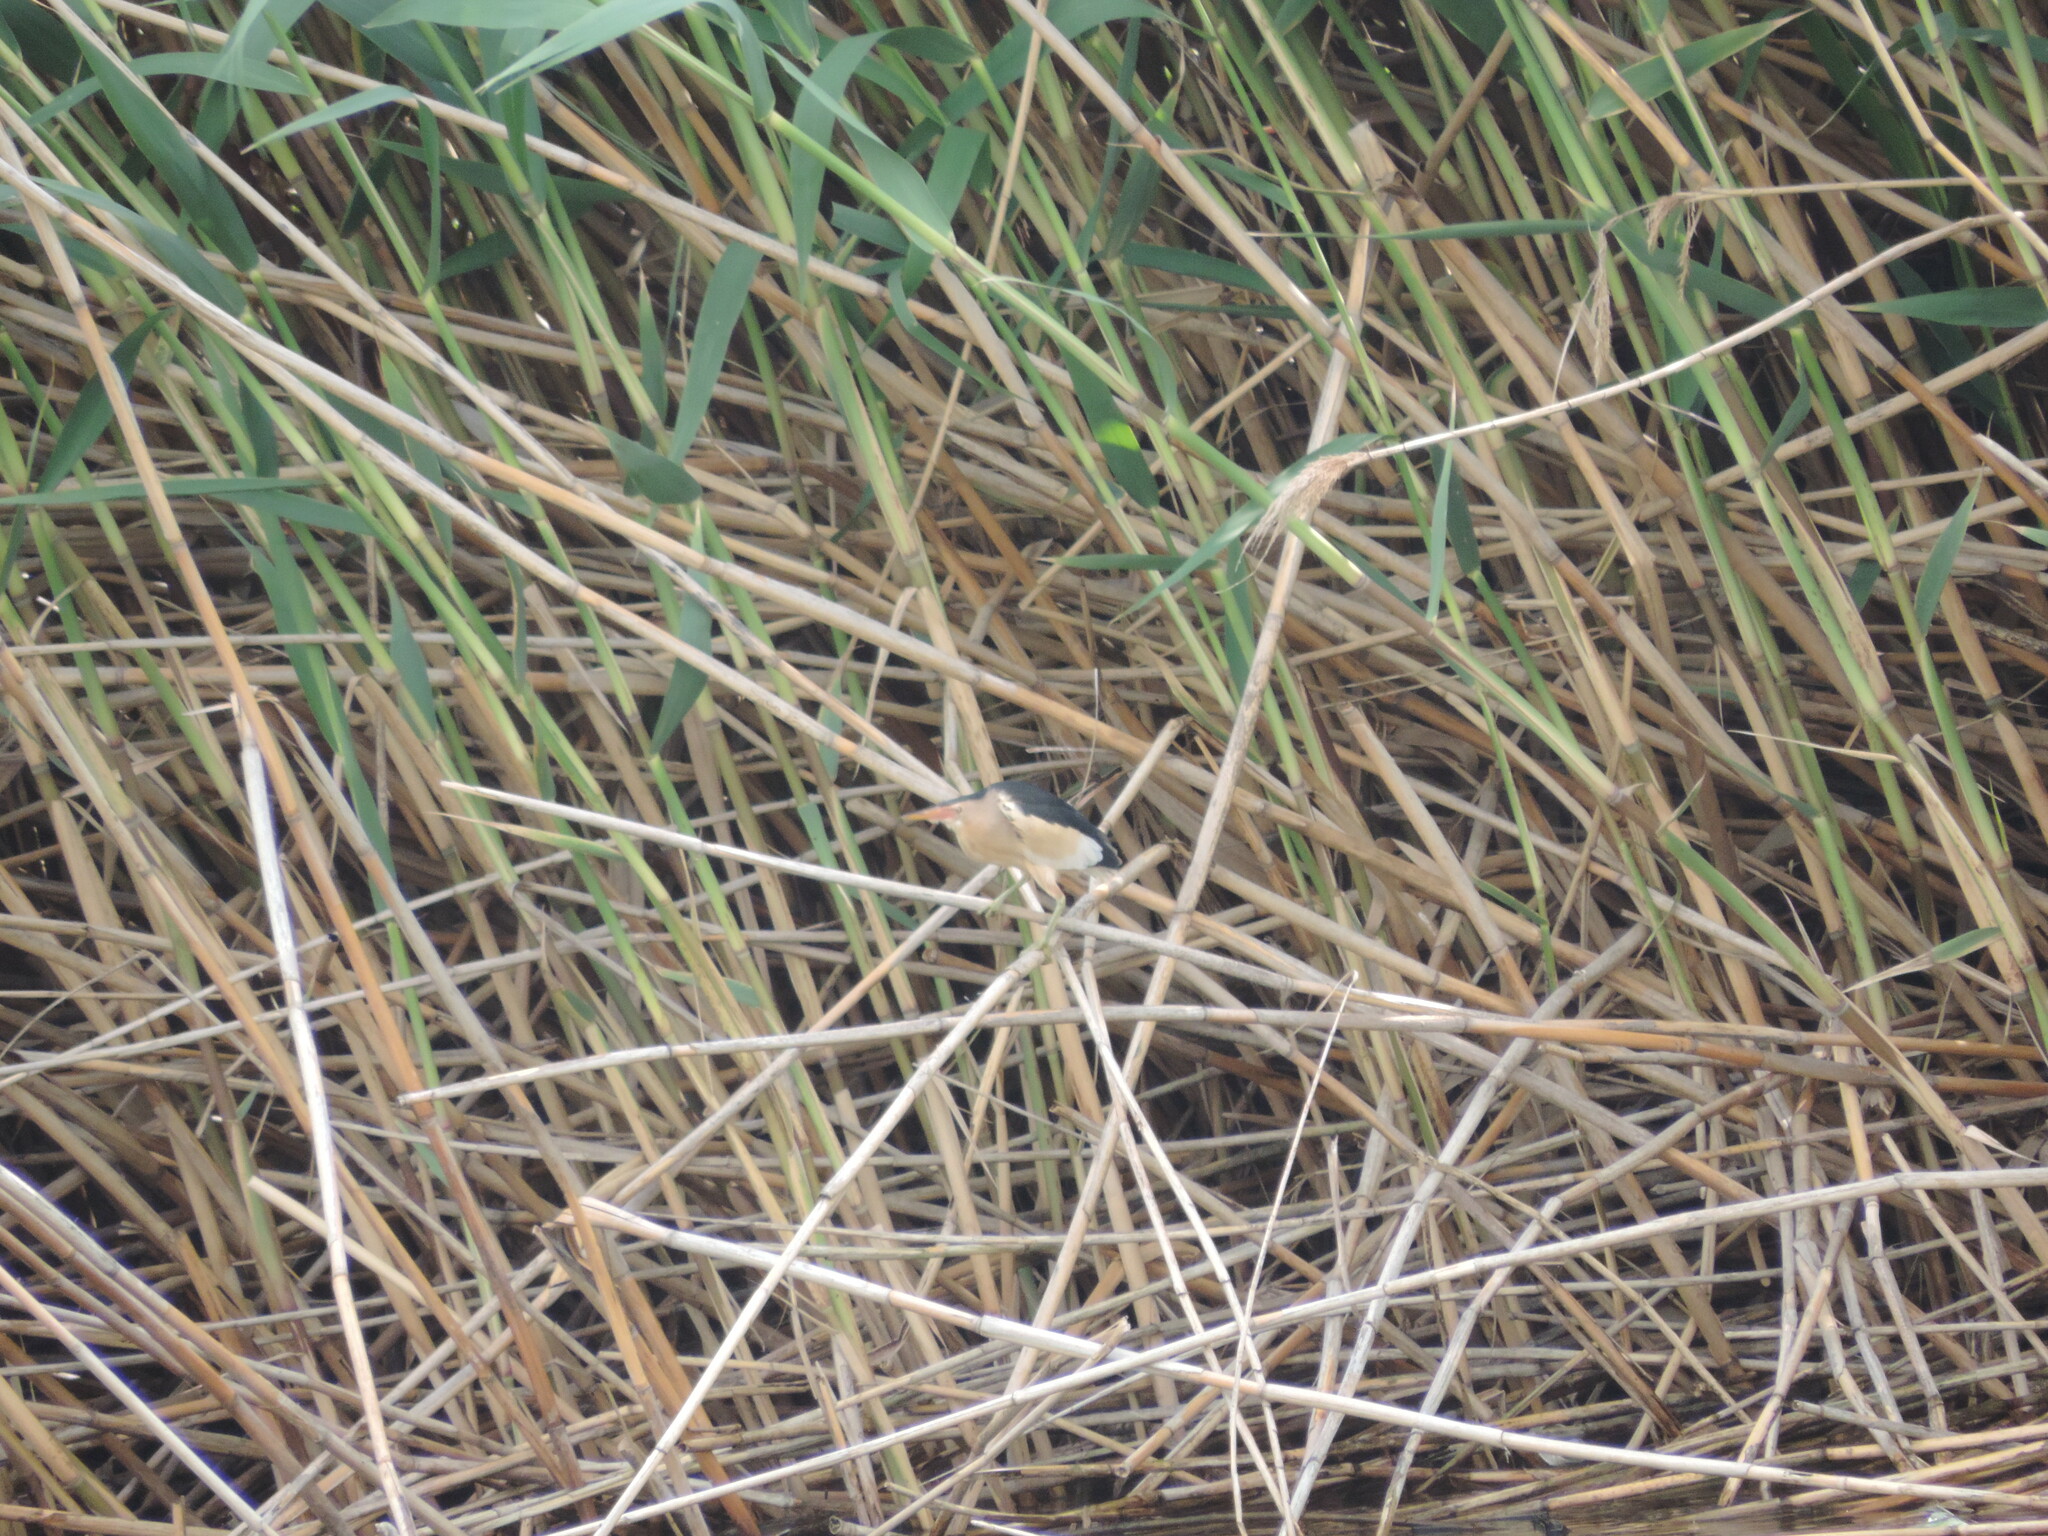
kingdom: Animalia
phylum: Chordata
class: Aves
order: Pelecaniformes
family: Ardeidae
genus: Ixobrychus
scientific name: Ixobrychus minutus
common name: Little bittern
